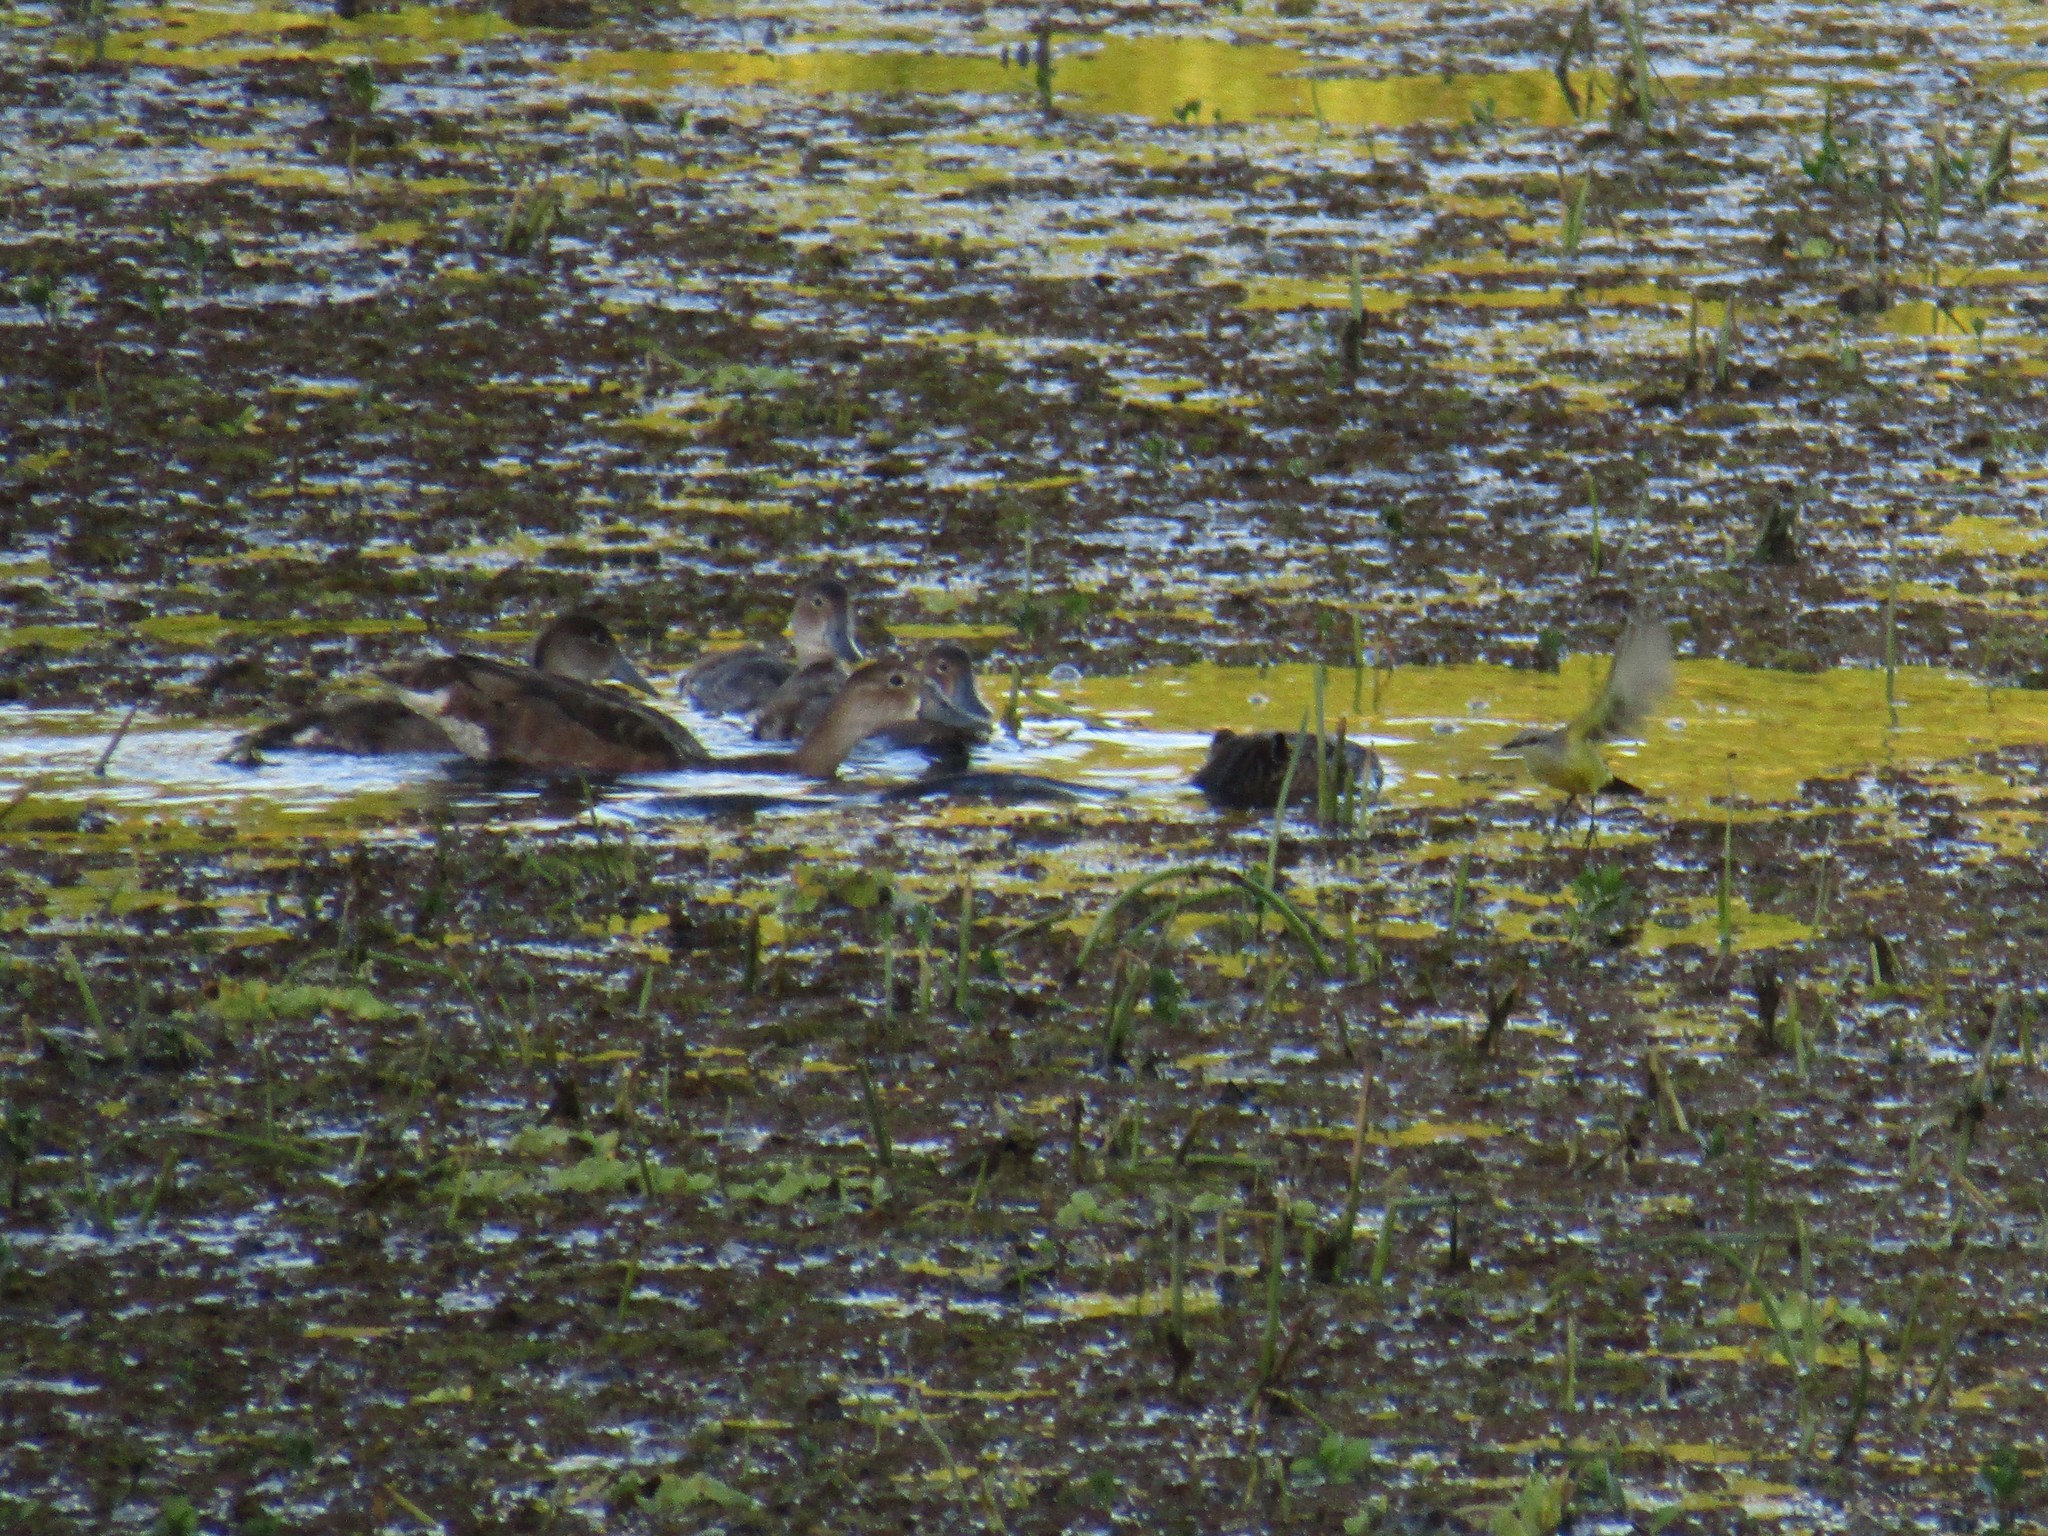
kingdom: Animalia
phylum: Chordata
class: Aves
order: Anseriformes
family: Anatidae
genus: Netta
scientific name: Netta peposaca
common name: Rosy-billed pochard
